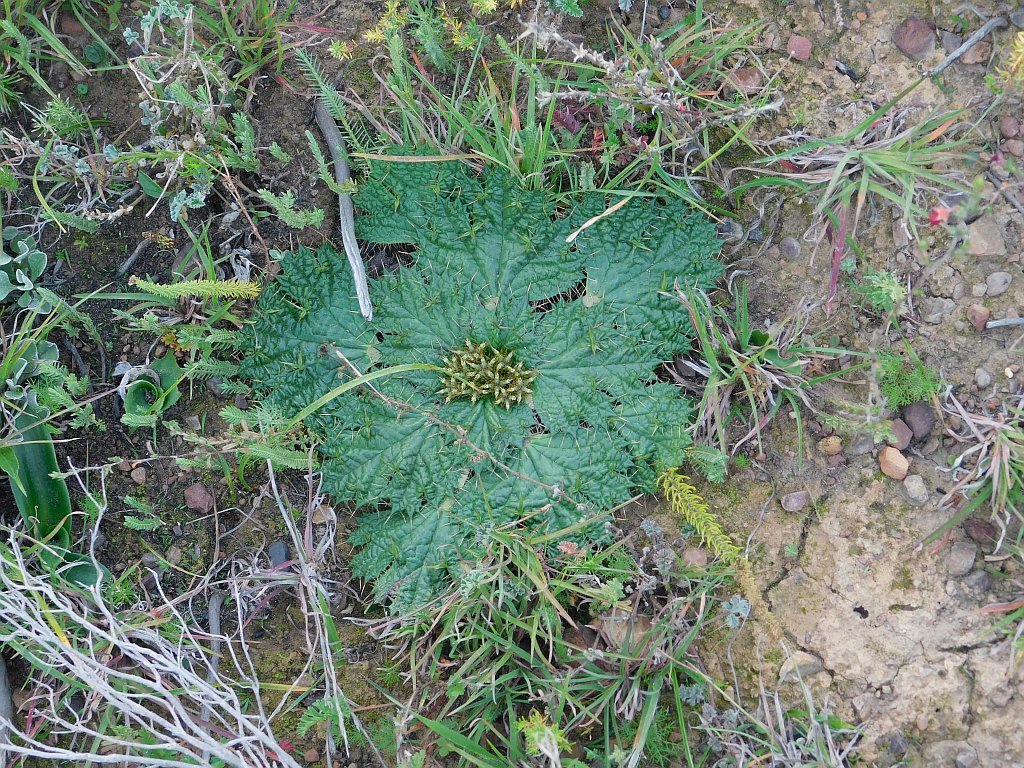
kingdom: Plantae
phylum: Tracheophyta
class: Magnoliopsida
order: Apiales
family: Apiaceae
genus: Arctopus
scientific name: Arctopus echinatus
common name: Platdoring
